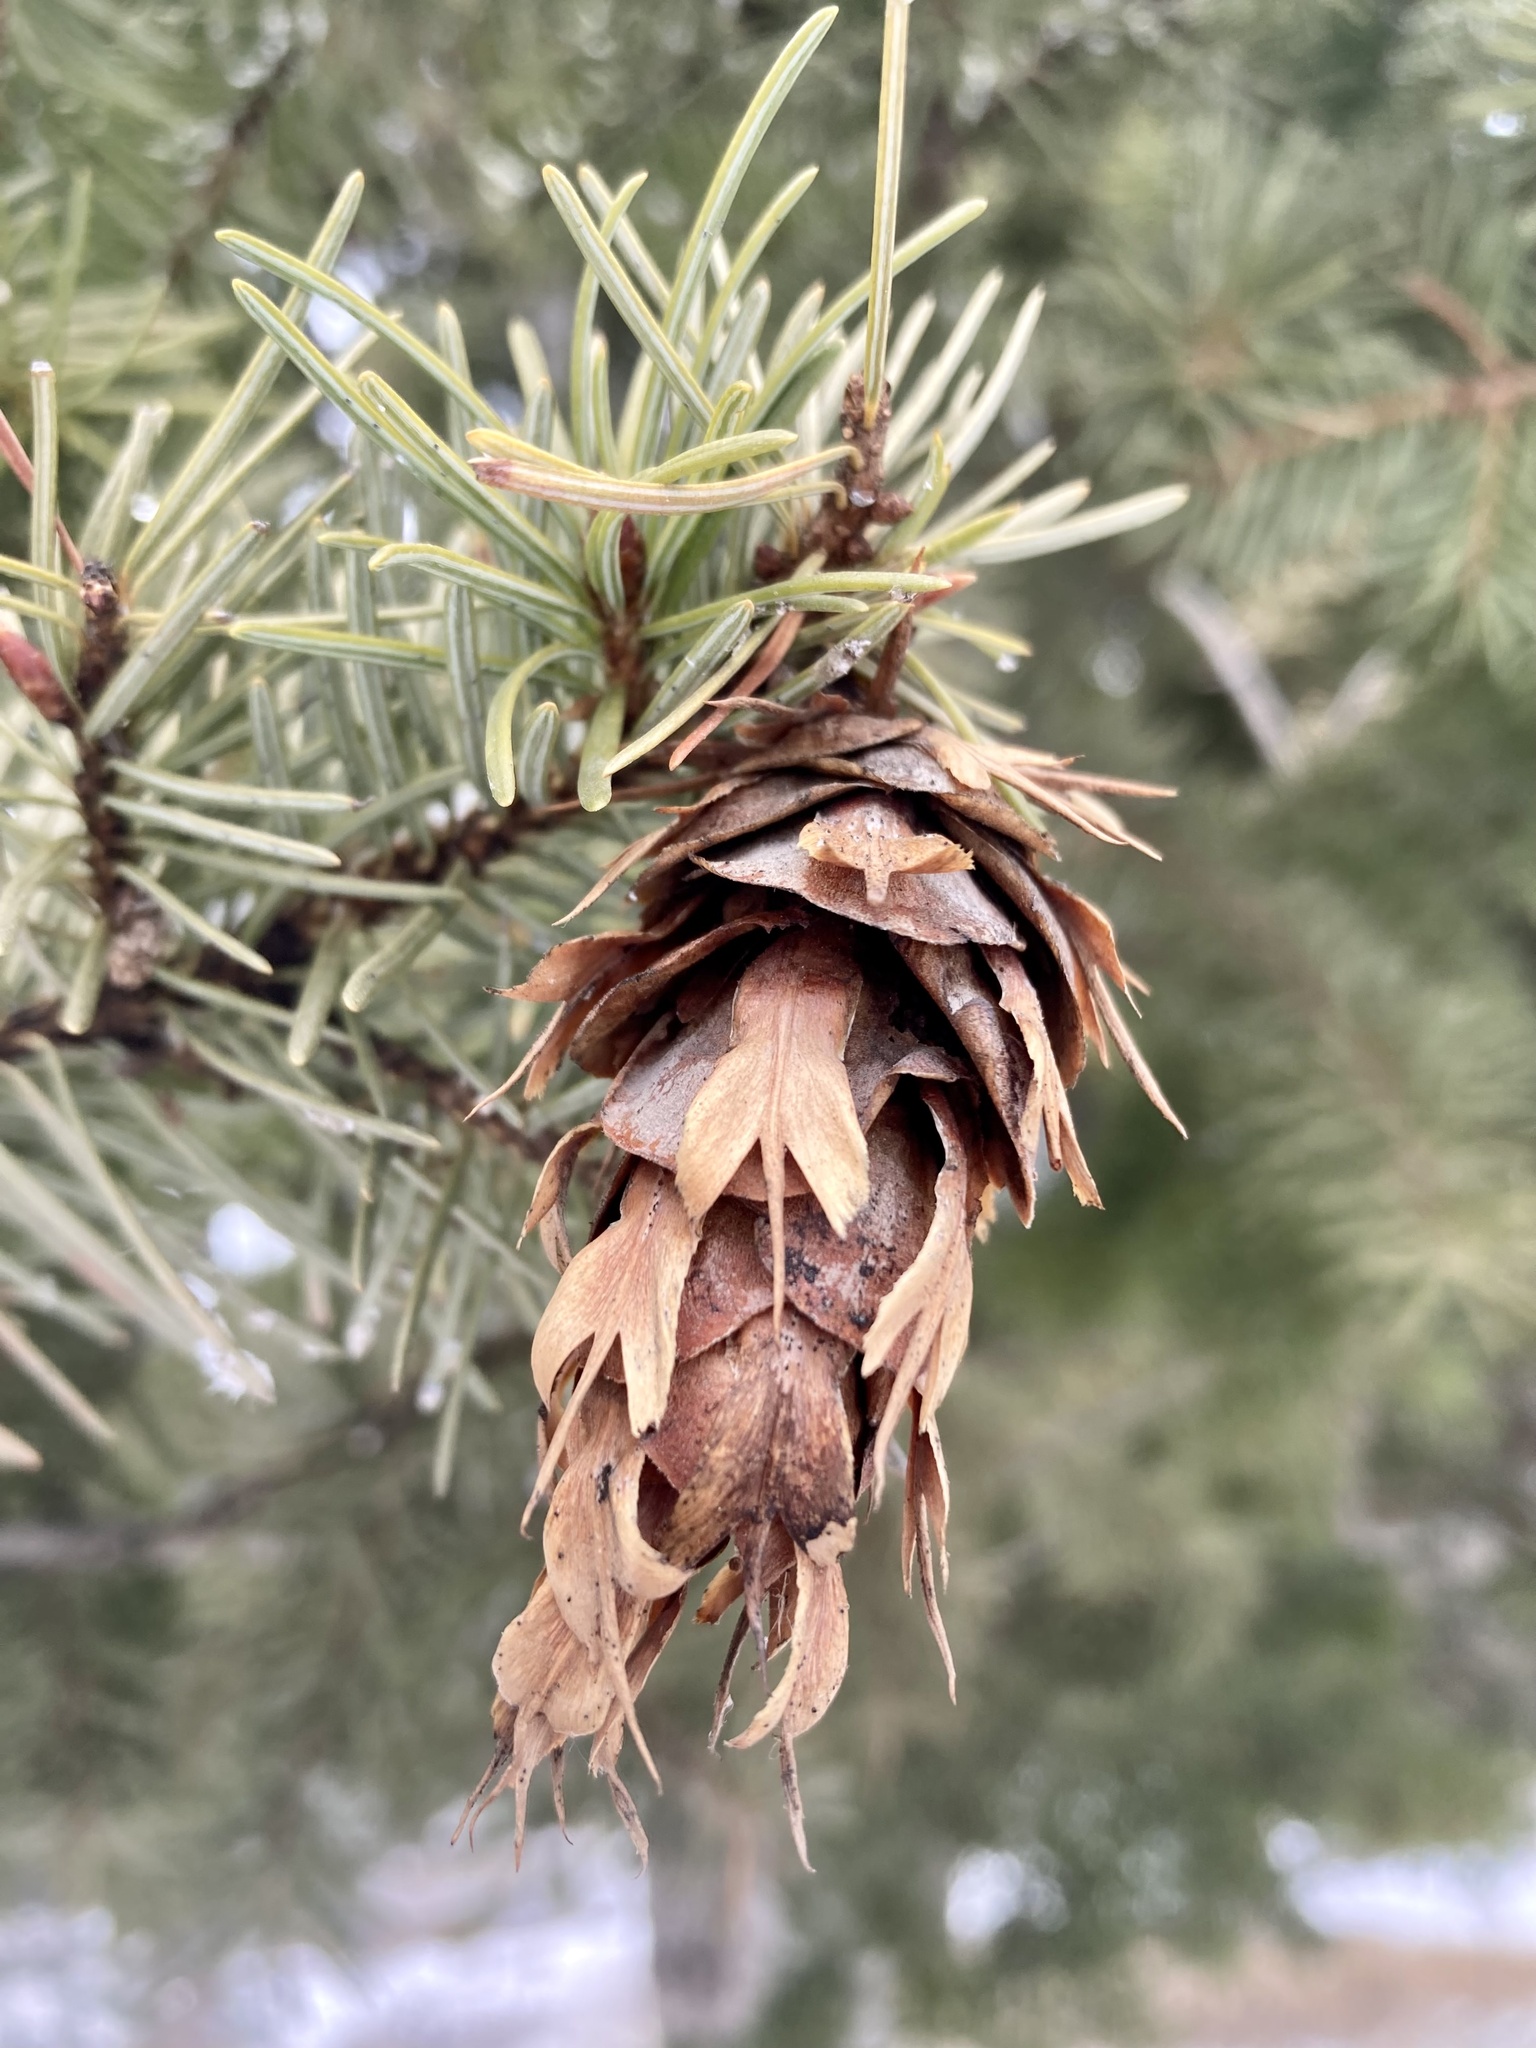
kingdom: Plantae
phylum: Tracheophyta
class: Pinopsida
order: Pinales
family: Pinaceae
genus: Pseudotsuga
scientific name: Pseudotsuga menziesii
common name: Douglas fir
